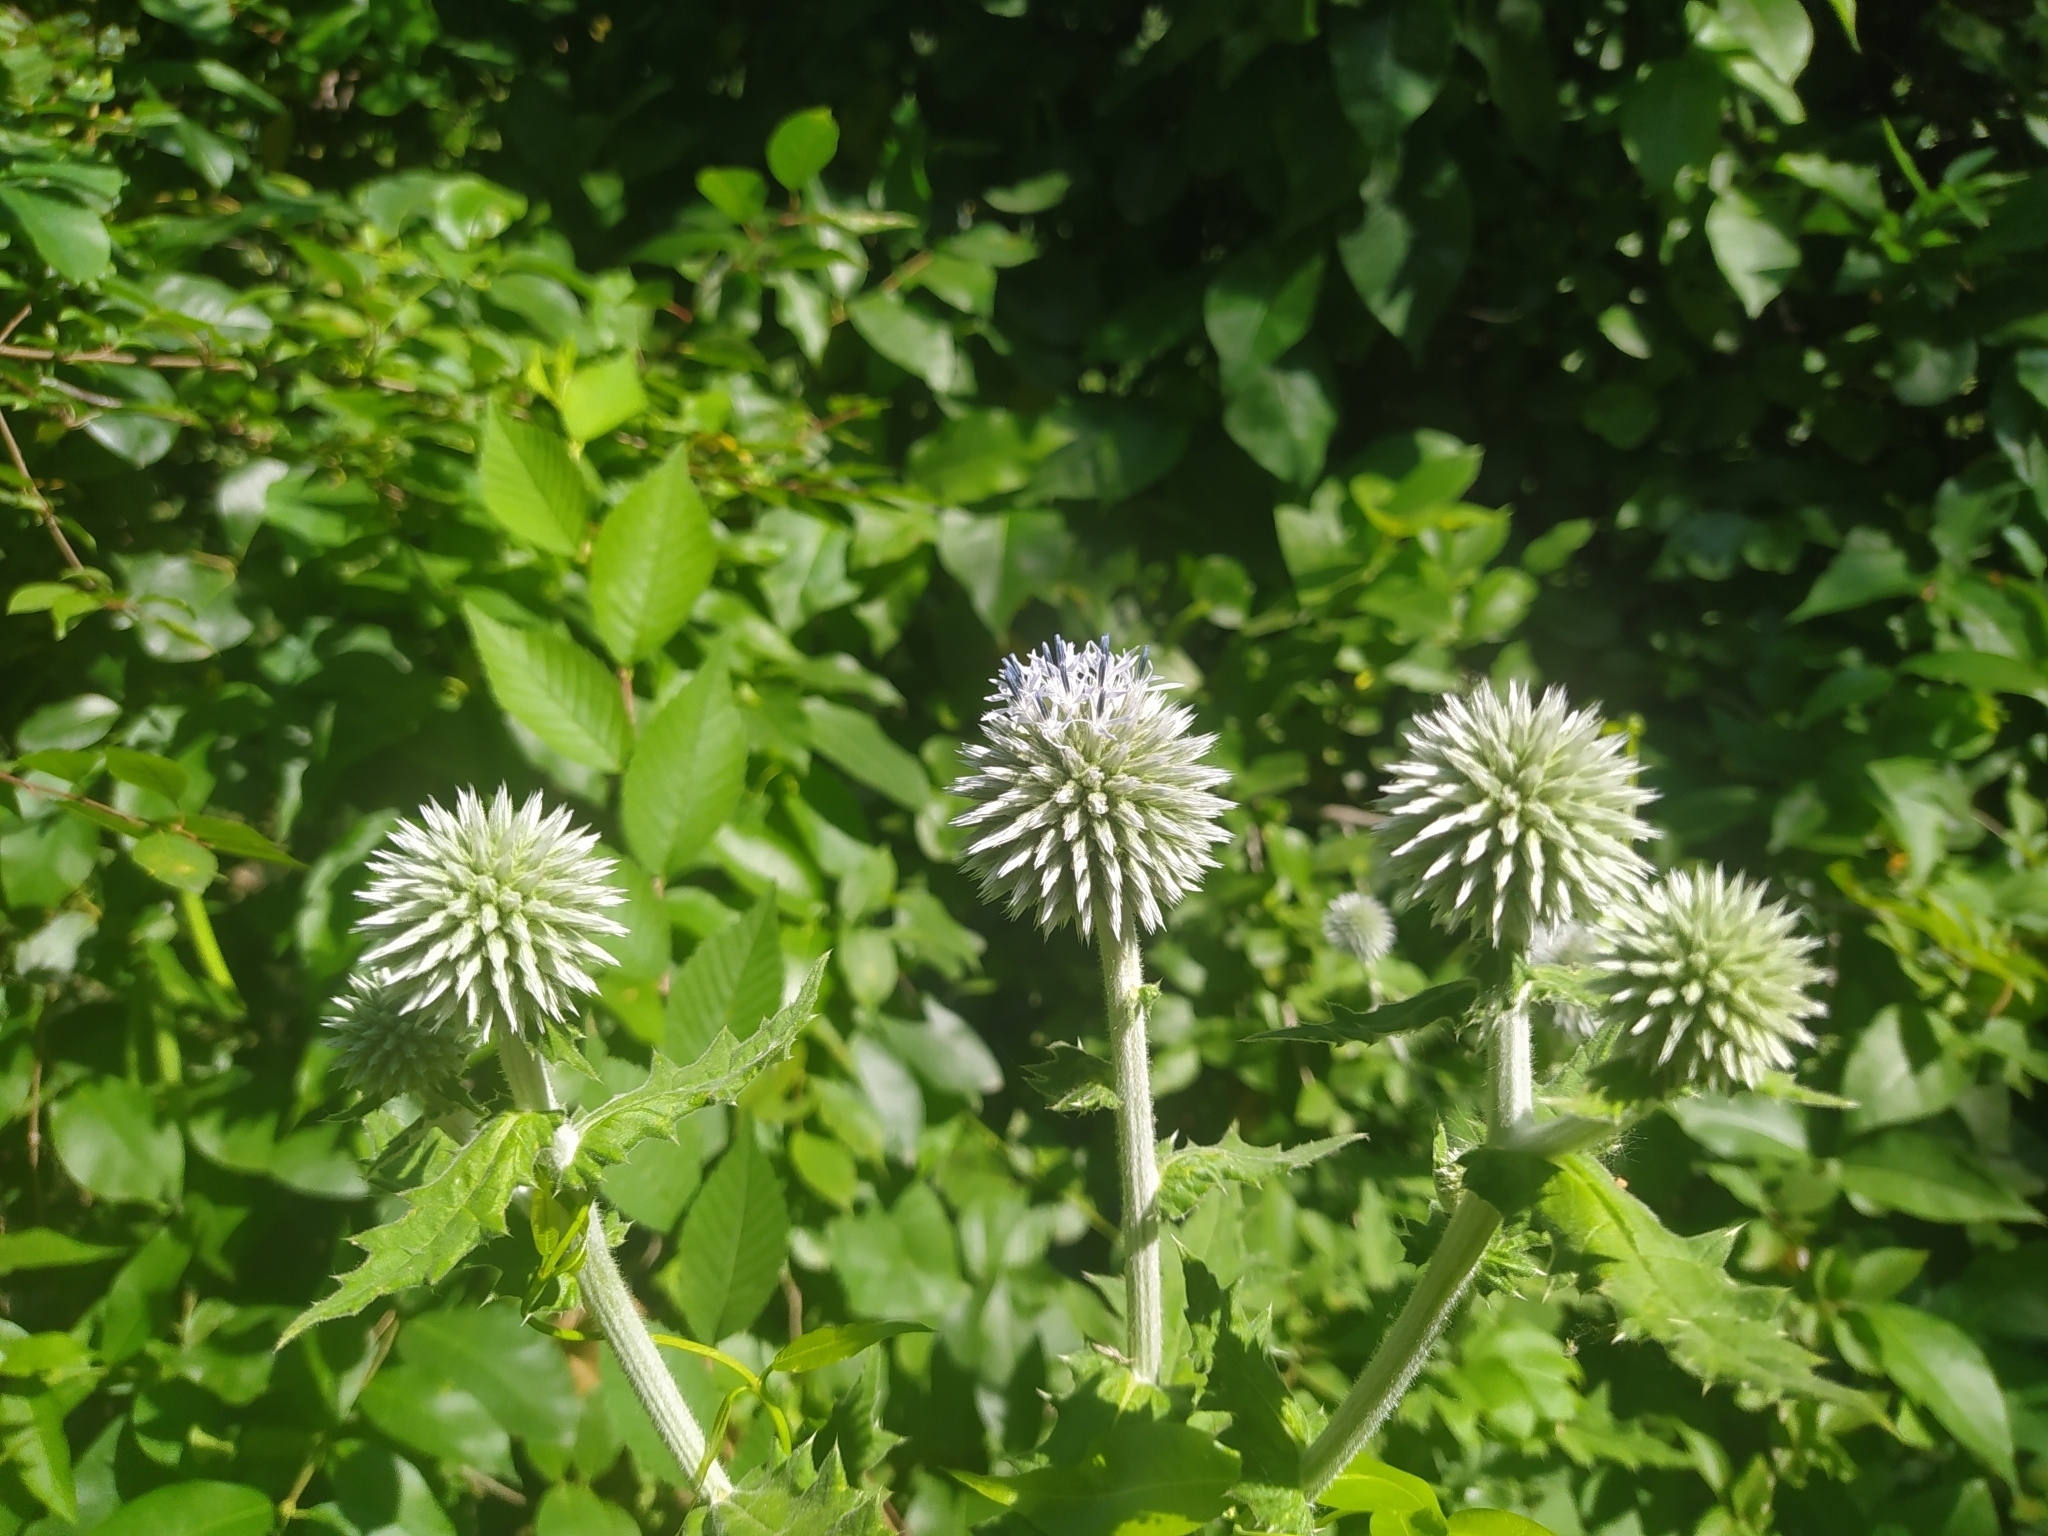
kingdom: Plantae
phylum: Tracheophyta
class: Magnoliopsida
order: Asterales
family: Asteraceae
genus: Echinops
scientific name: Echinops sphaerocephalus
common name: Glandular globe-thistle
